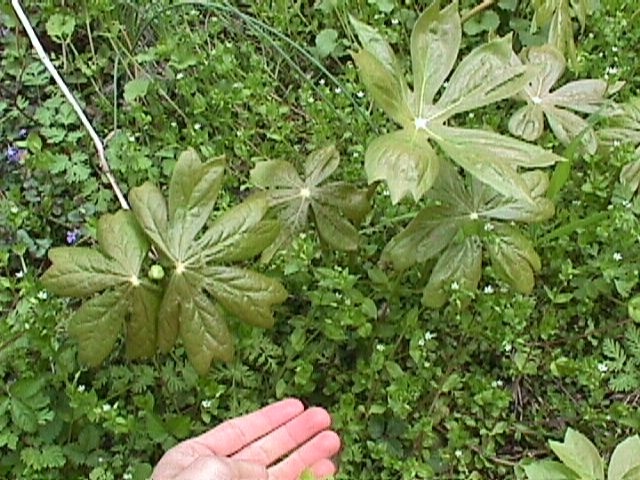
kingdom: Plantae
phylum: Tracheophyta
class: Magnoliopsida
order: Ranunculales
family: Berberidaceae
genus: Podophyllum
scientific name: Podophyllum peltatum
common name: Wild mandrake
